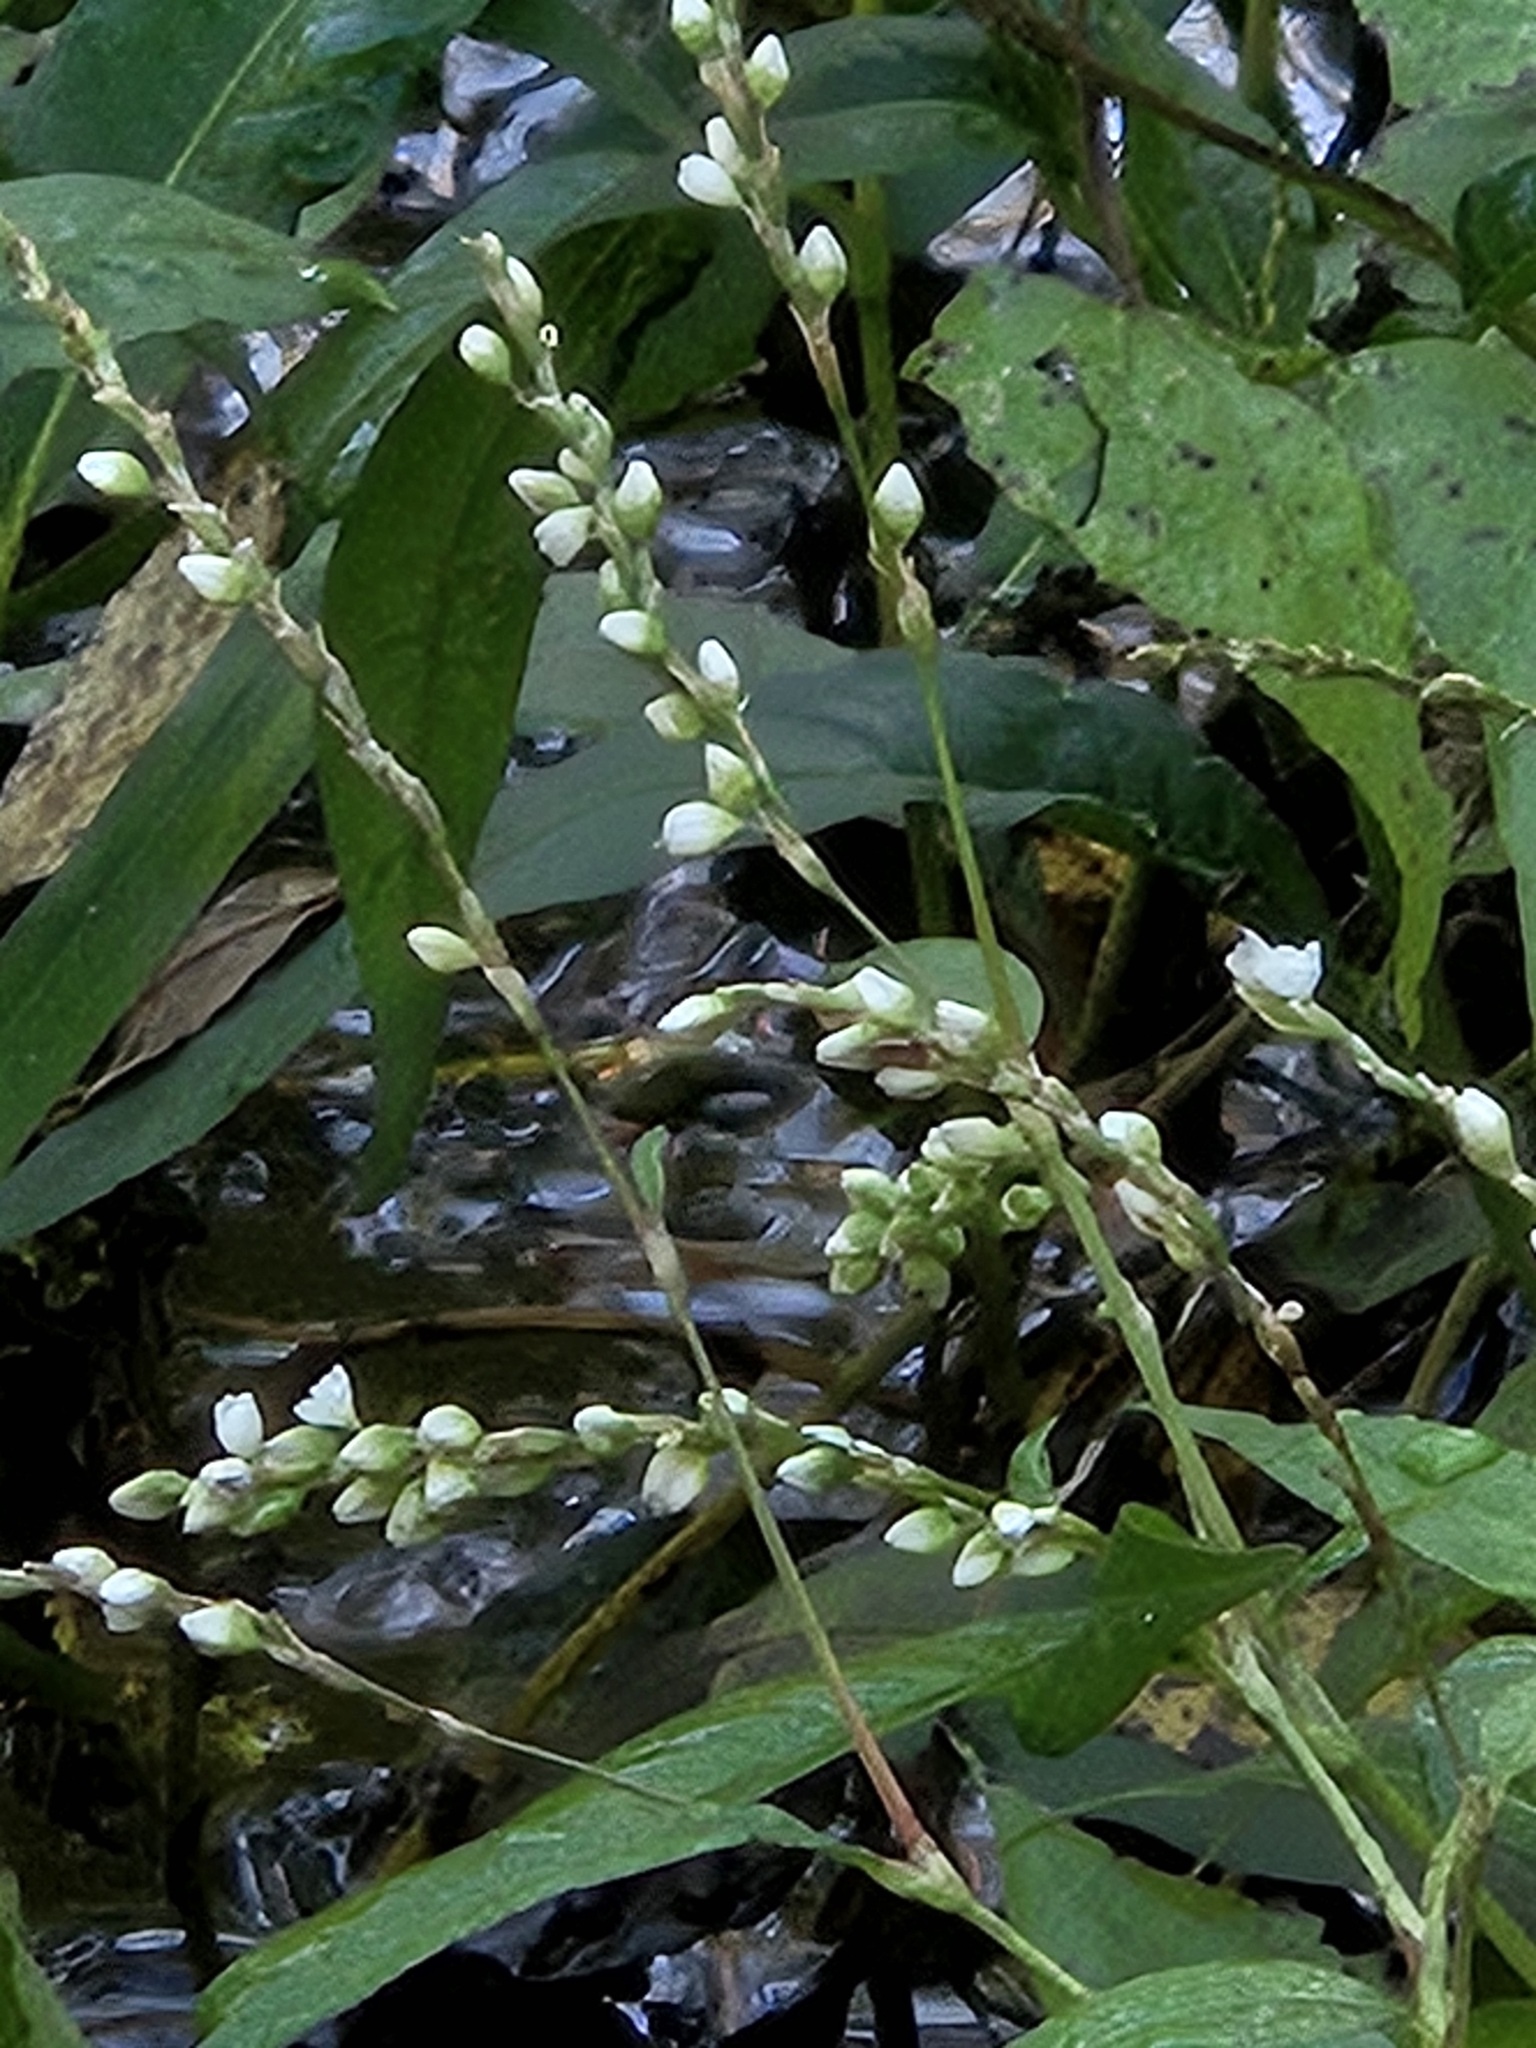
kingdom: Plantae
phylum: Tracheophyta
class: Magnoliopsida
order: Caryophyllales
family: Polygonaceae
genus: Persicaria
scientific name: Persicaria robustior
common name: Stout smartweed
